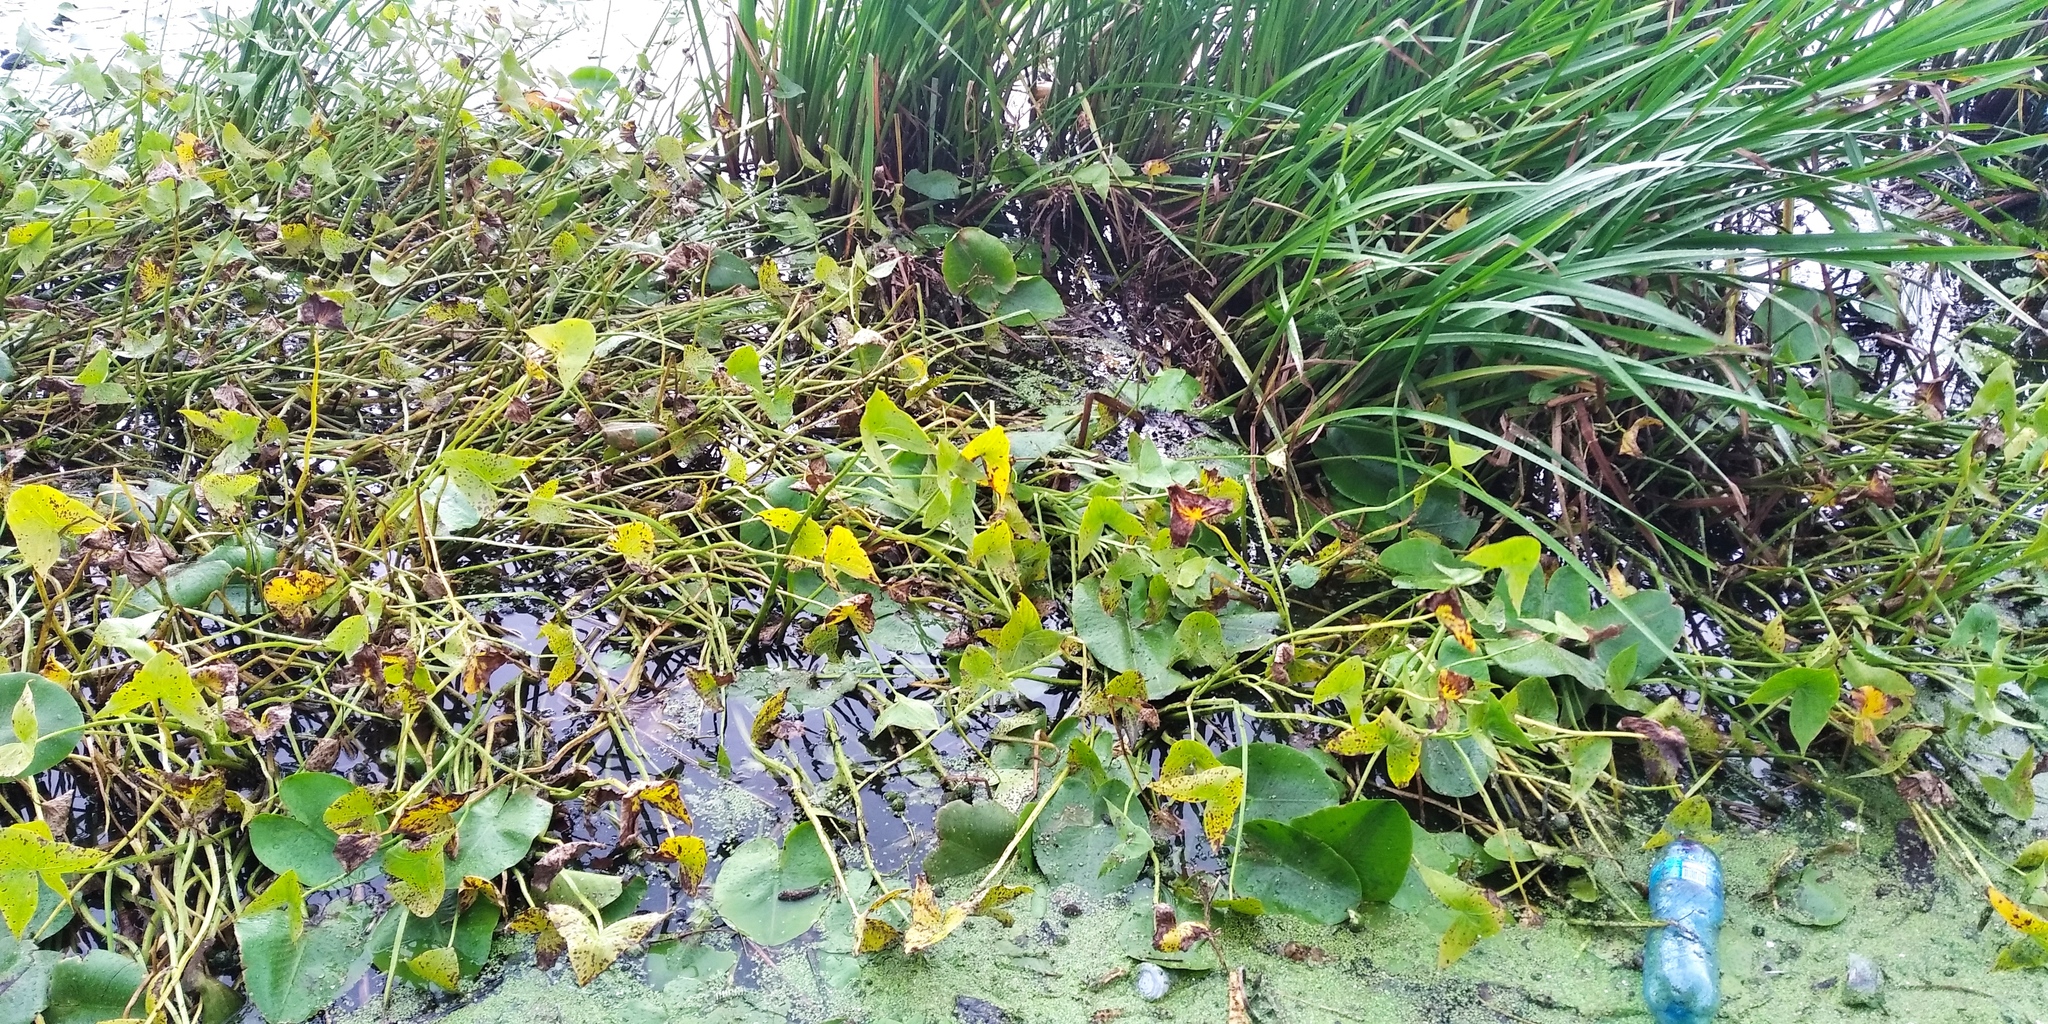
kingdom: Plantae
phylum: Tracheophyta
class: Liliopsida
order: Alismatales
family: Alismataceae
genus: Sagittaria
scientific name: Sagittaria sagittifolia
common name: Arrowhead
